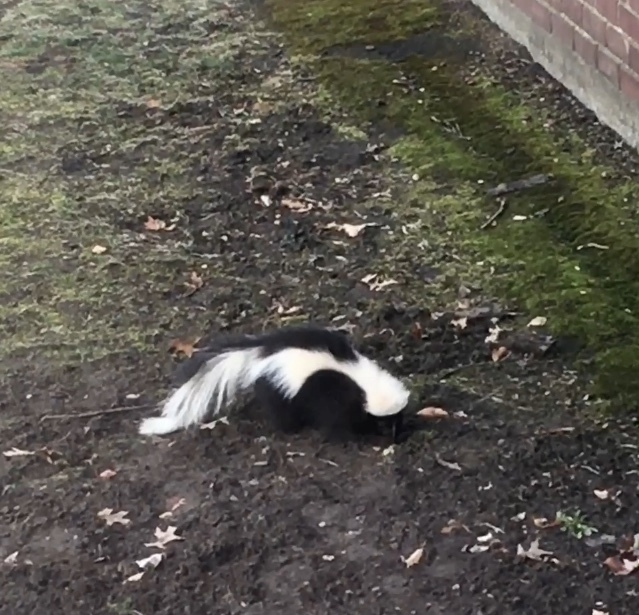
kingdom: Animalia
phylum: Chordata
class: Mammalia
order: Carnivora
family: Mephitidae
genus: Mephitis
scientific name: Mephitis mephitis
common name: Striped skunk
